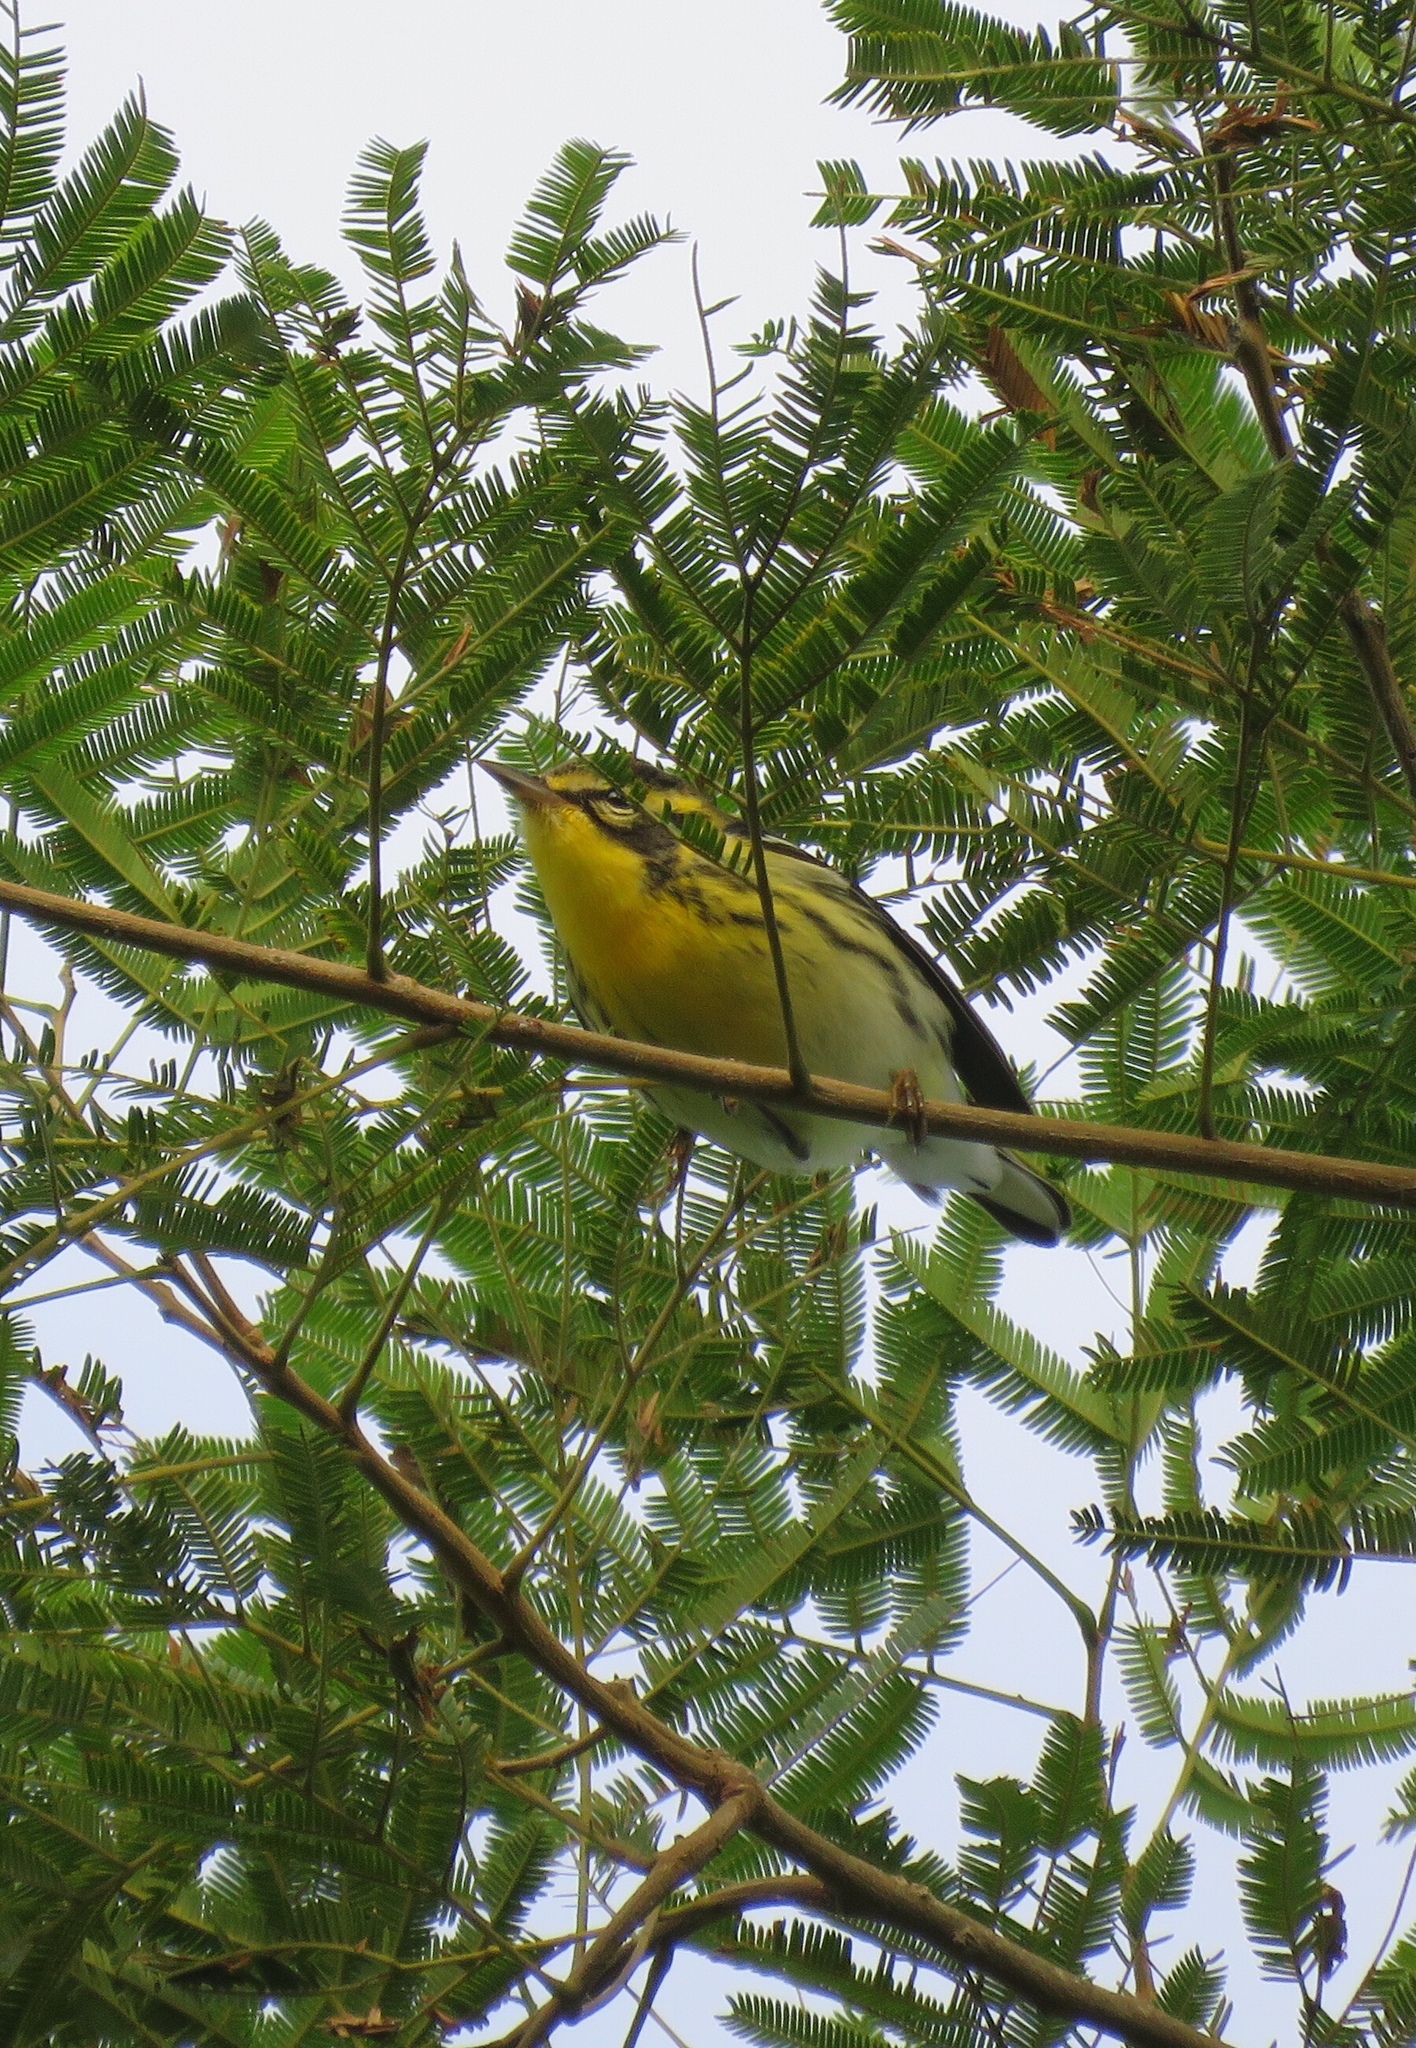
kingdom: Animalia
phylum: Chordata
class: Aves
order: Passeriformes
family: Parulidae
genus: Setophaga
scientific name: Setophaga fusca
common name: Blackburnian warbler
